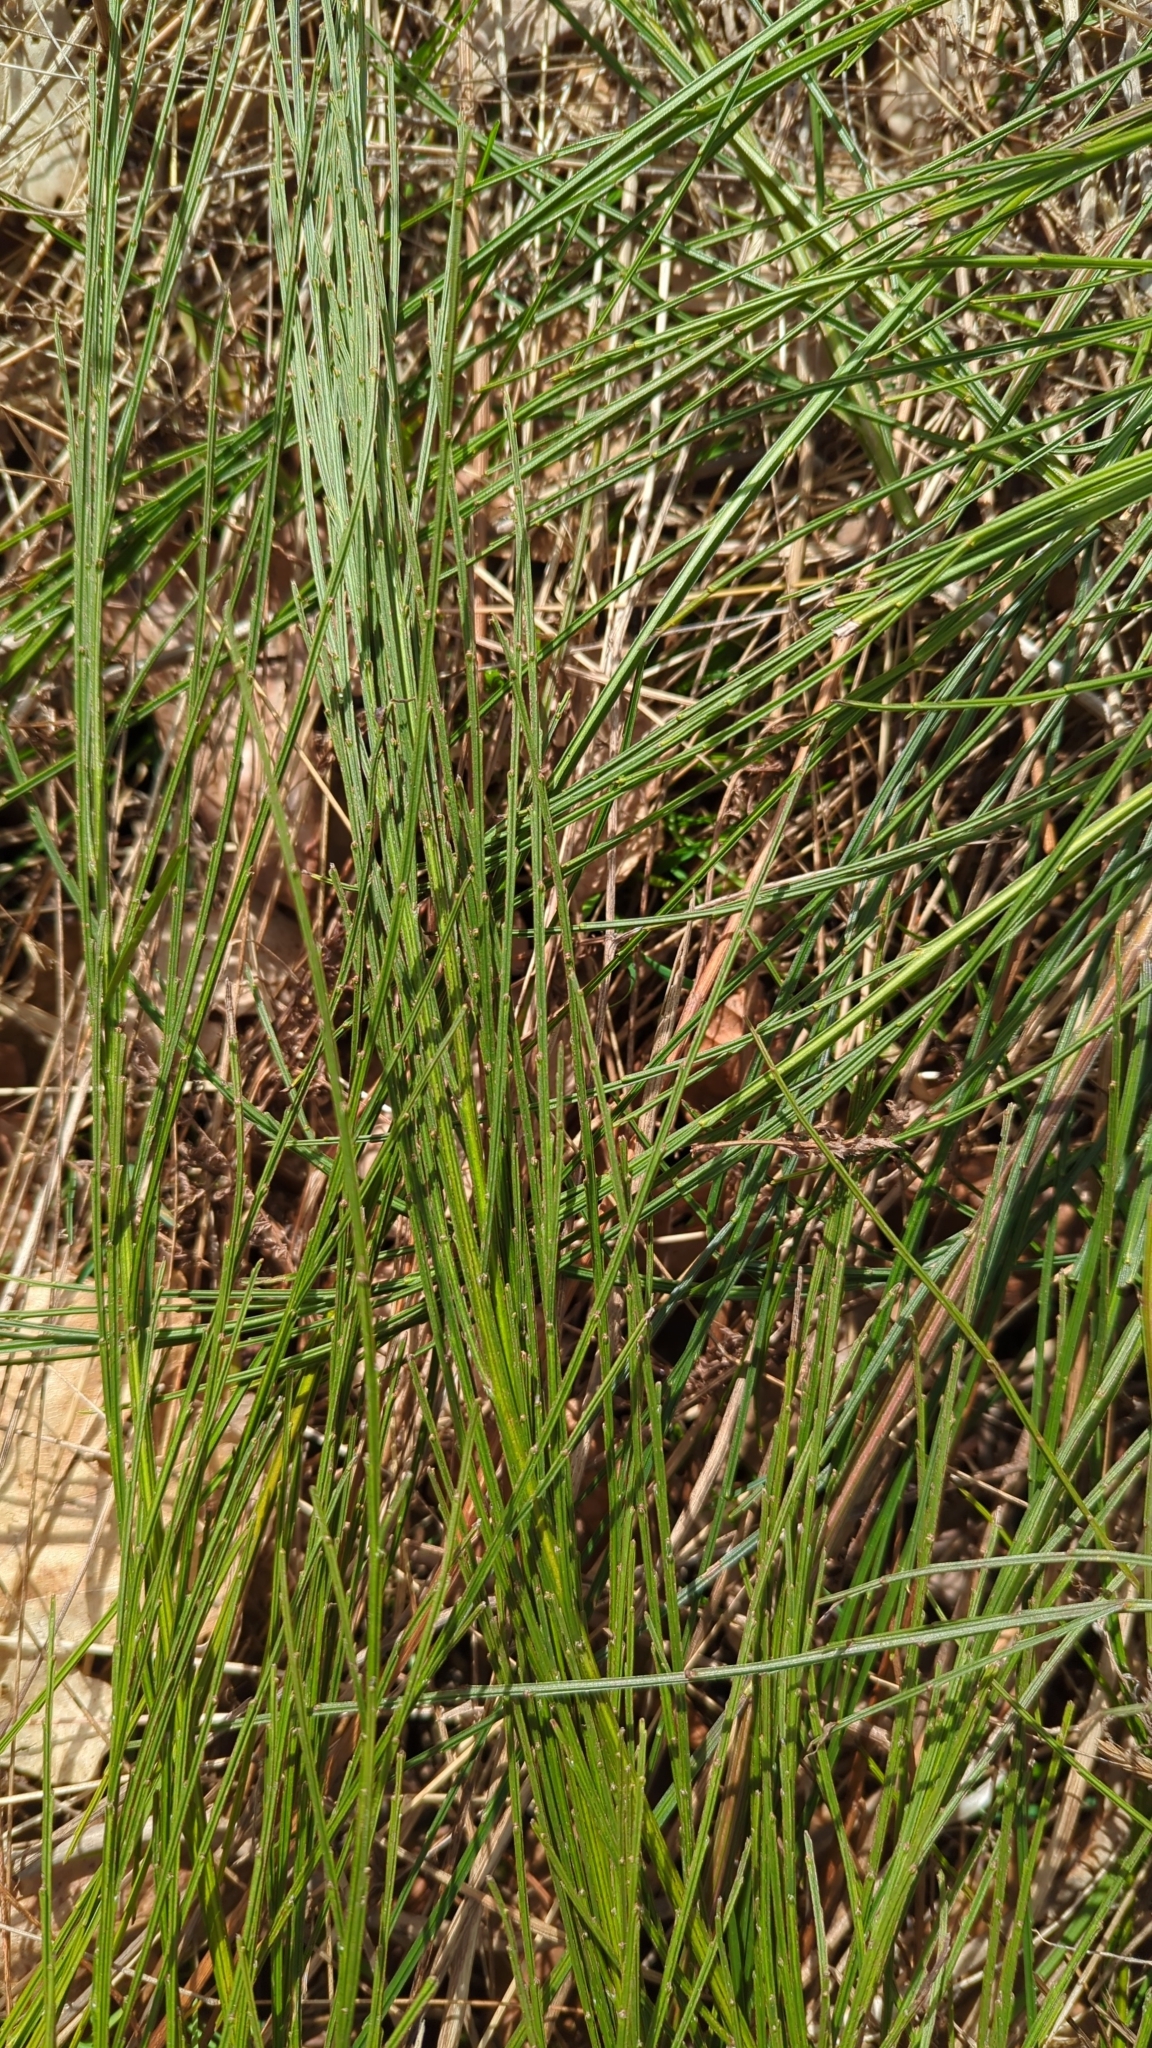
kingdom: Plantae
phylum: Tracheophyta
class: Magnoliopsida
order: Fabales
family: Fabaceae
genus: Cytisus
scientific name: Cytisus scoparius
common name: Scotch broom
